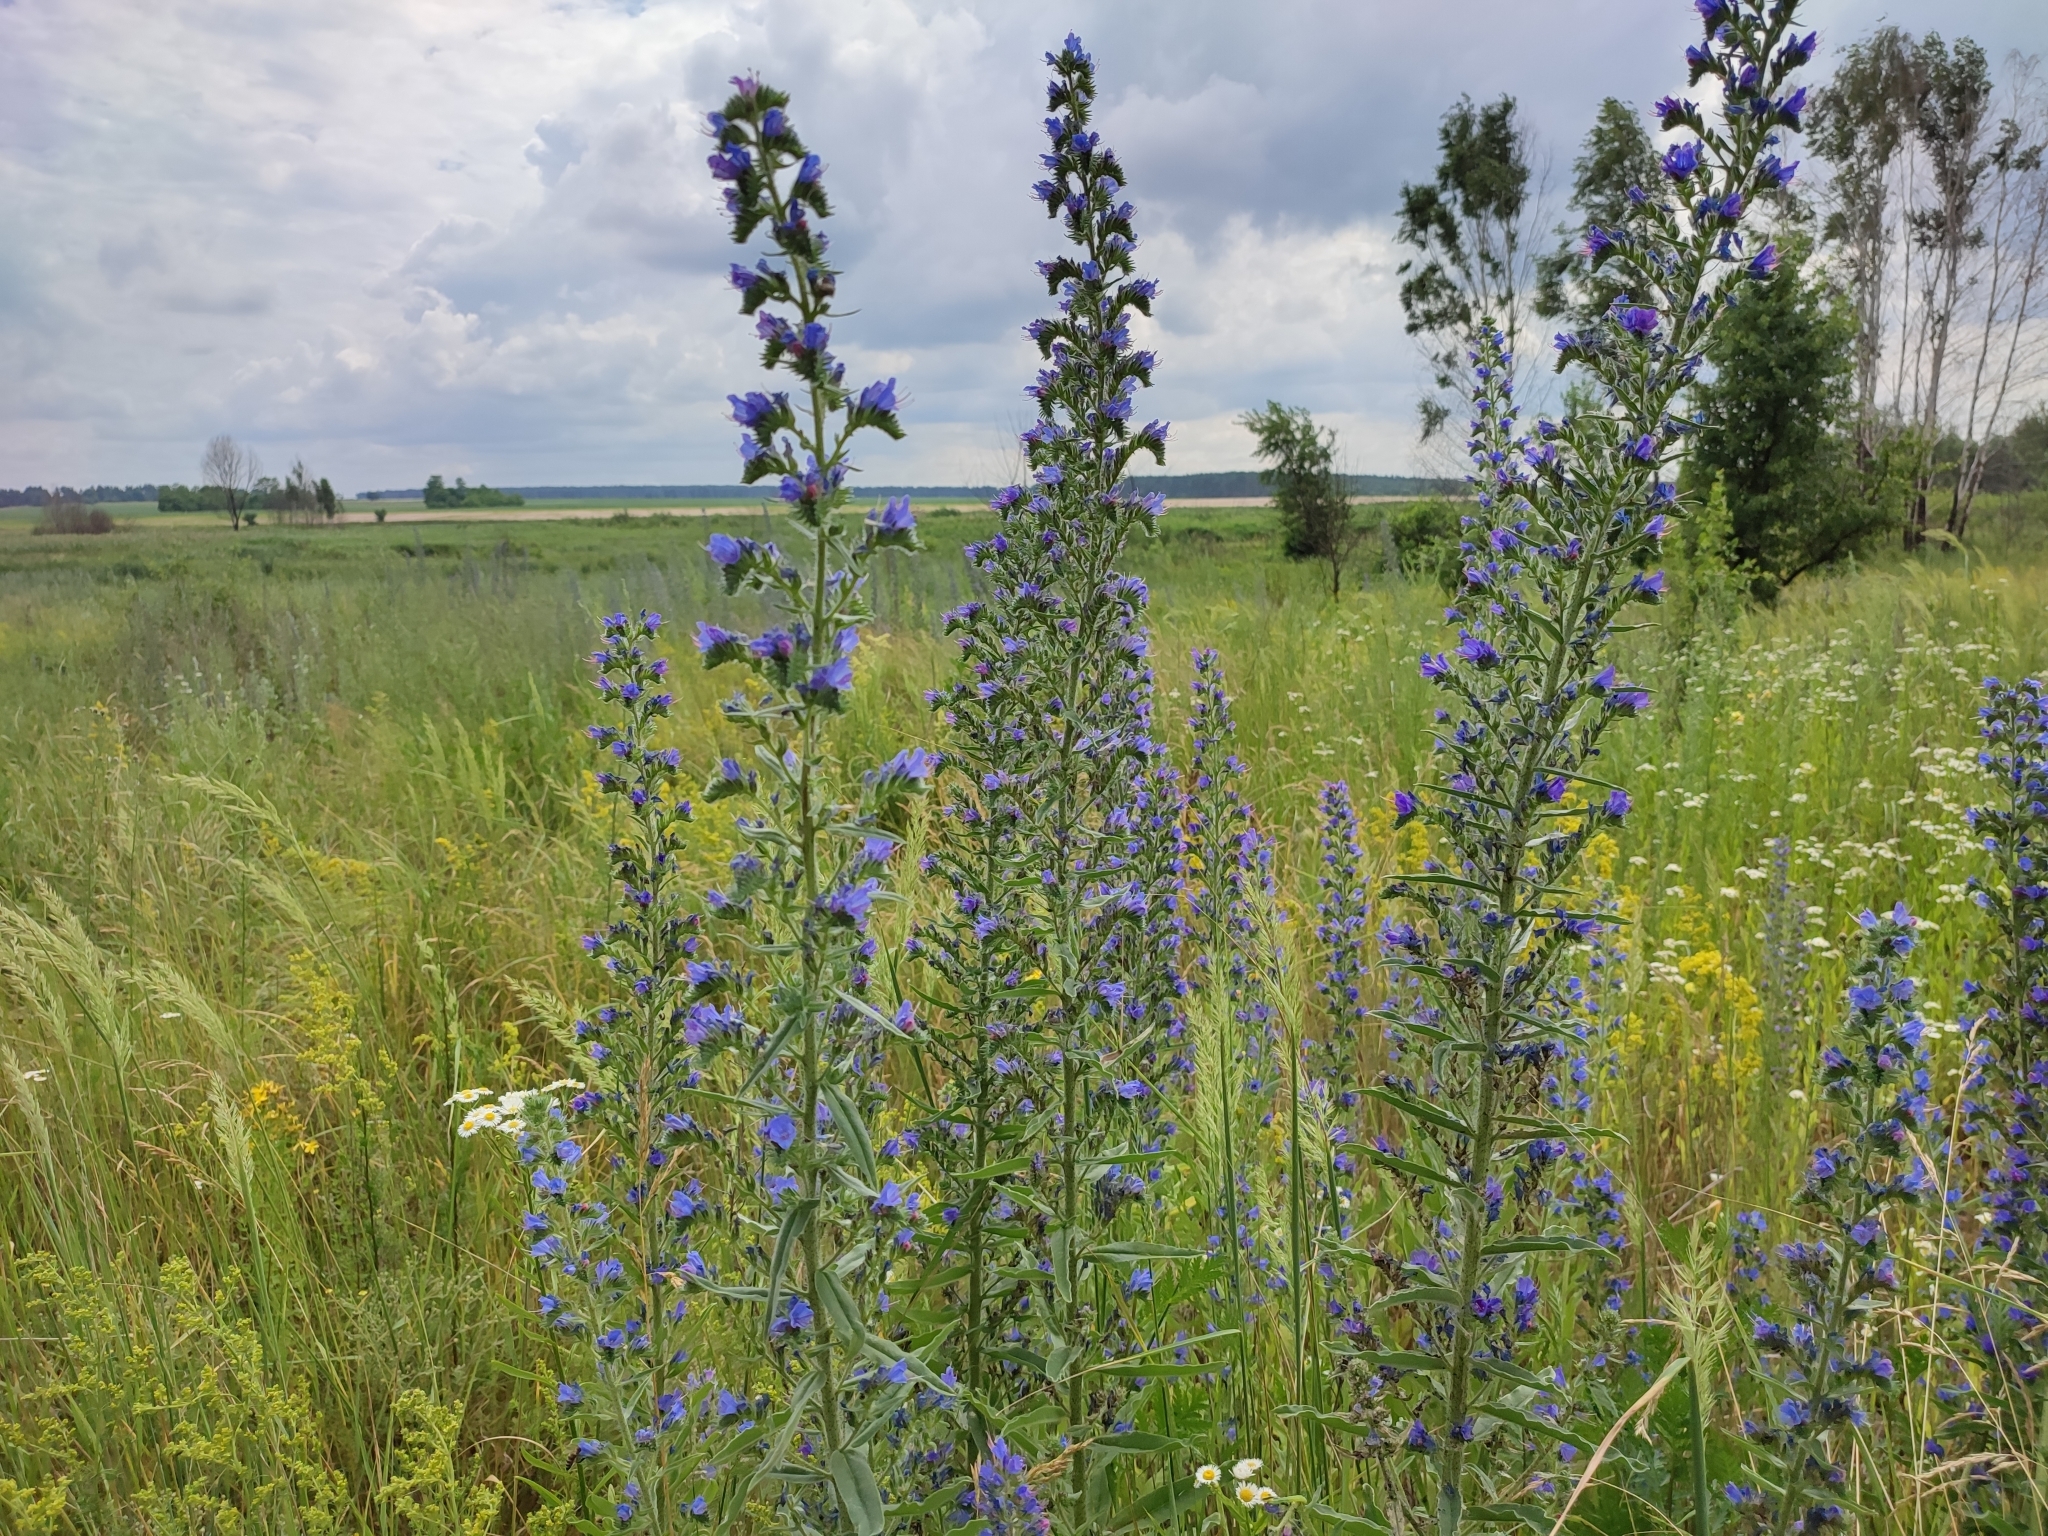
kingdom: Plantae
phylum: Tracheophyta
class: Magnoliopsida
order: Boraginales
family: Boraginaceae
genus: Echium
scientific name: Echium vulgare
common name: Common viper's bugloss
